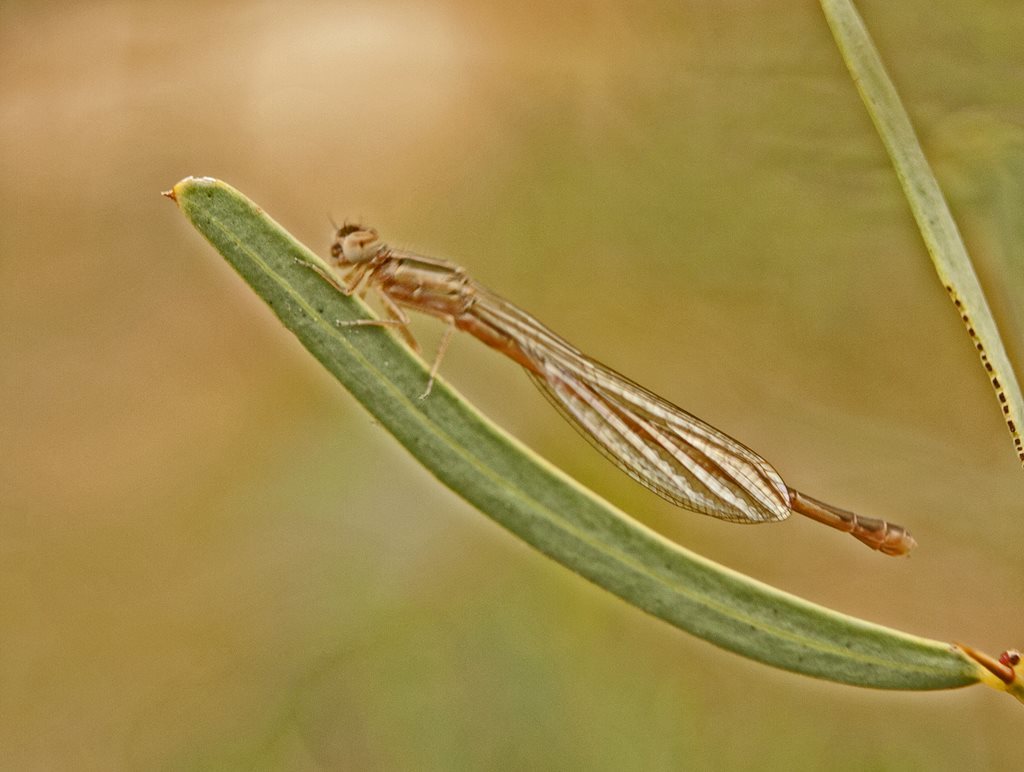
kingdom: Animalia
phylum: Arthropoda
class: Insecta
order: Odonata
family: Coenagrionidae
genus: Ischnura
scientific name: Ischnura aurora
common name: Gossamer damselfly
